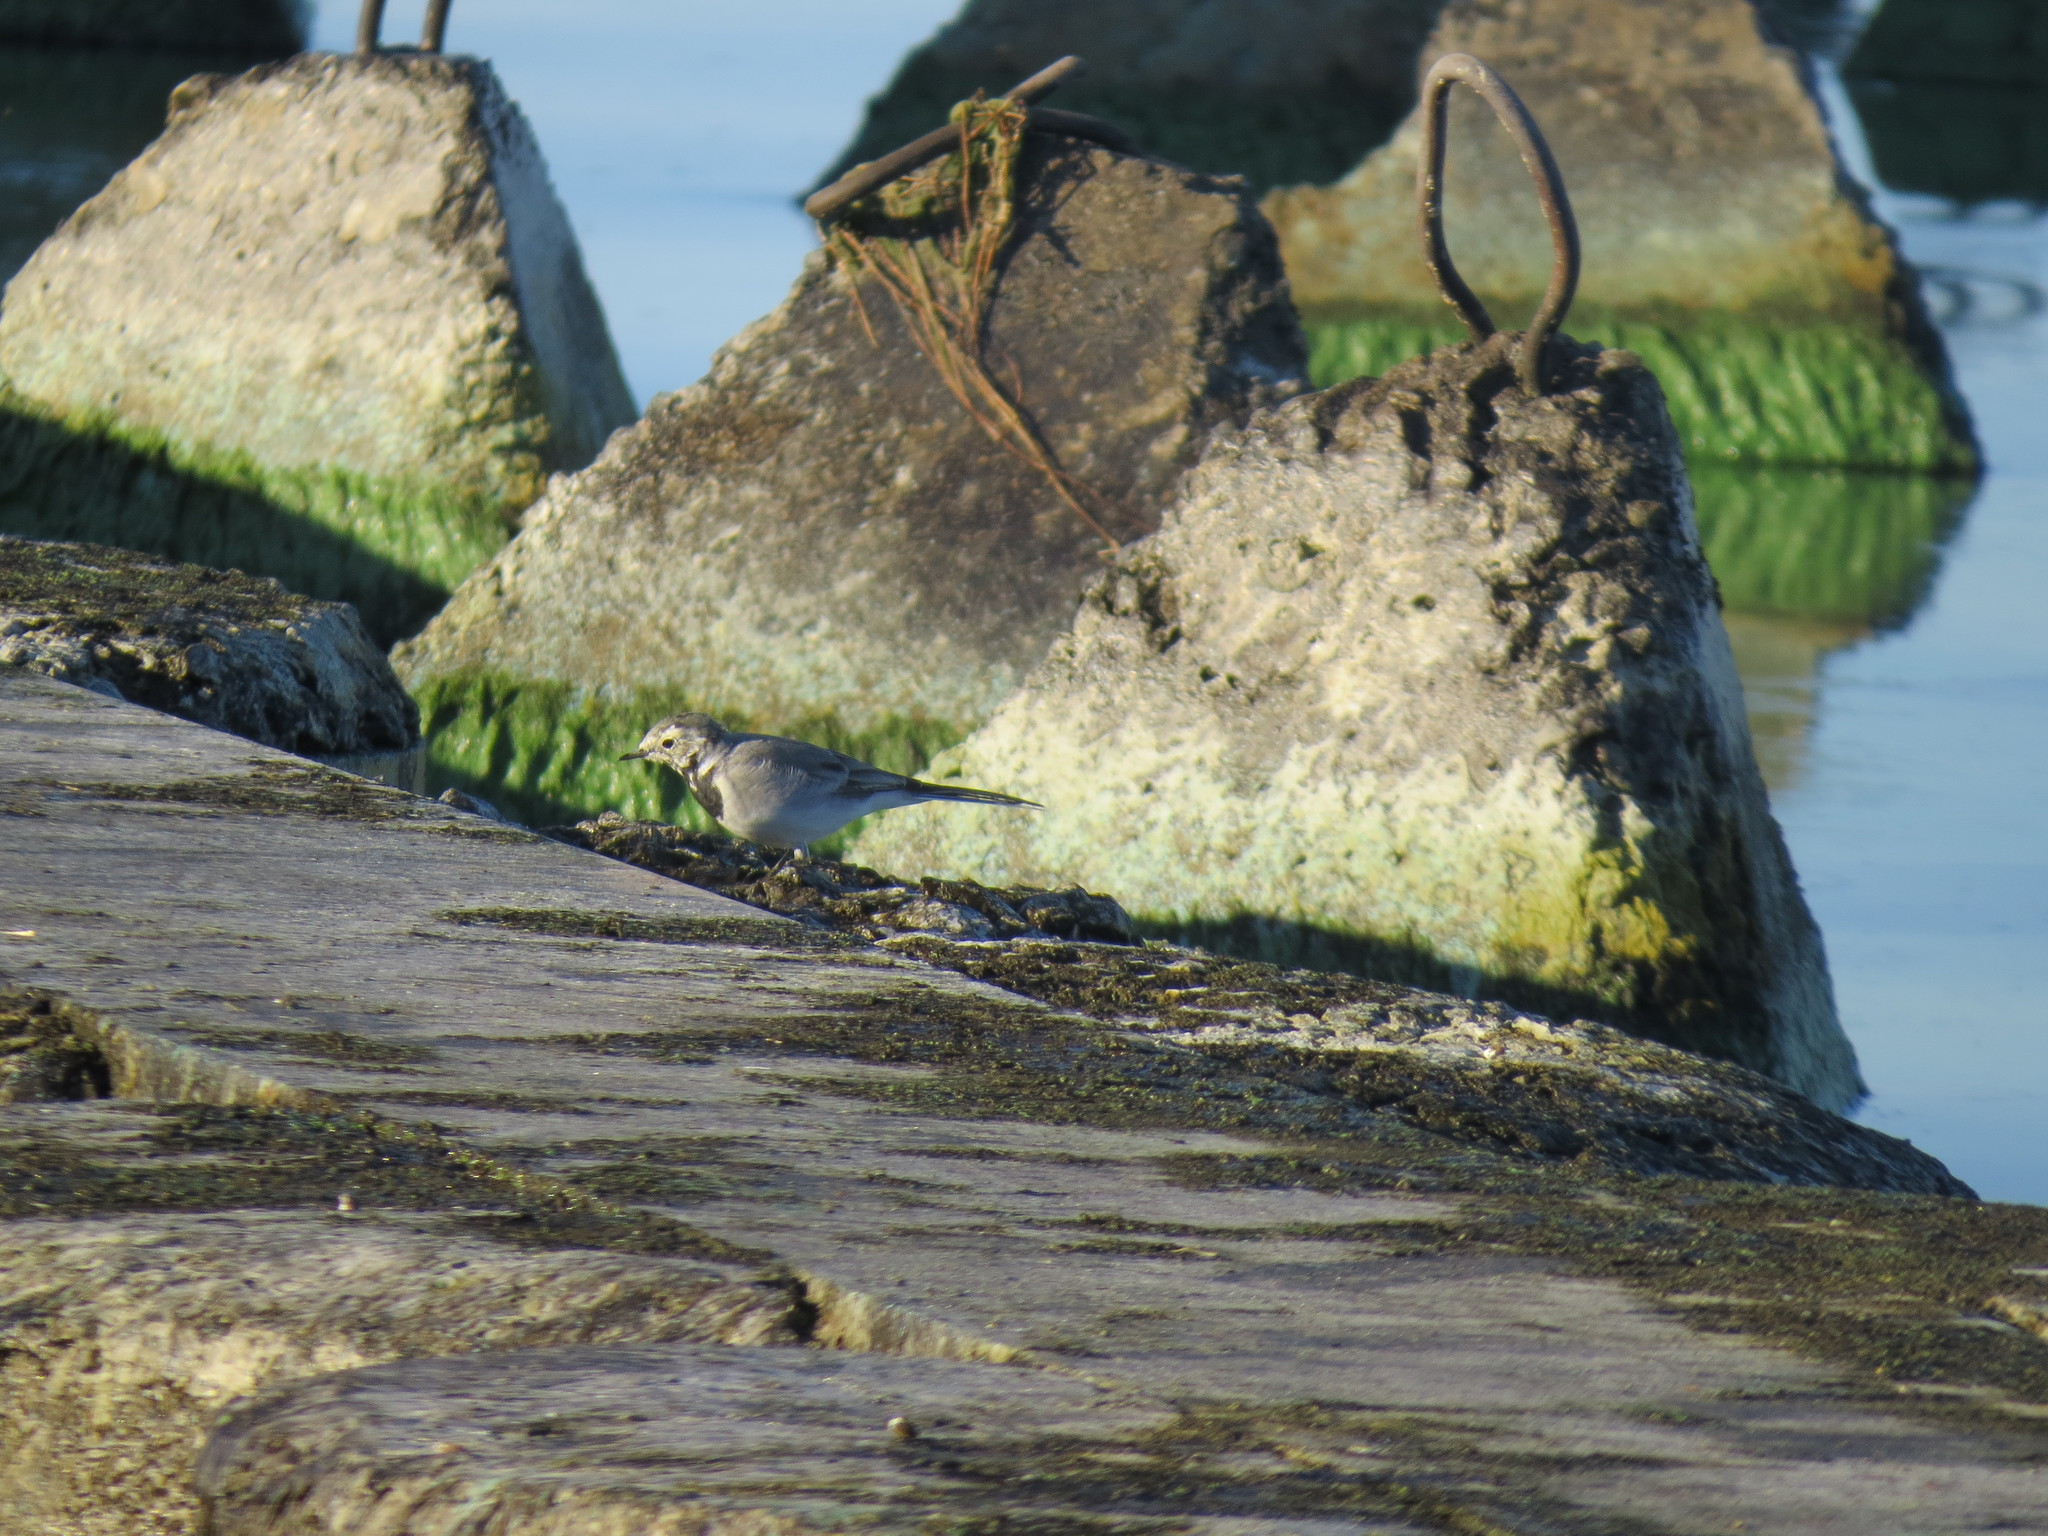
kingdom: Animalia
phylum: Chordata
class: Aves
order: Passeriformes
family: Motacillidae
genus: Motacilla
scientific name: Motacilla alba
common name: White wagtail
